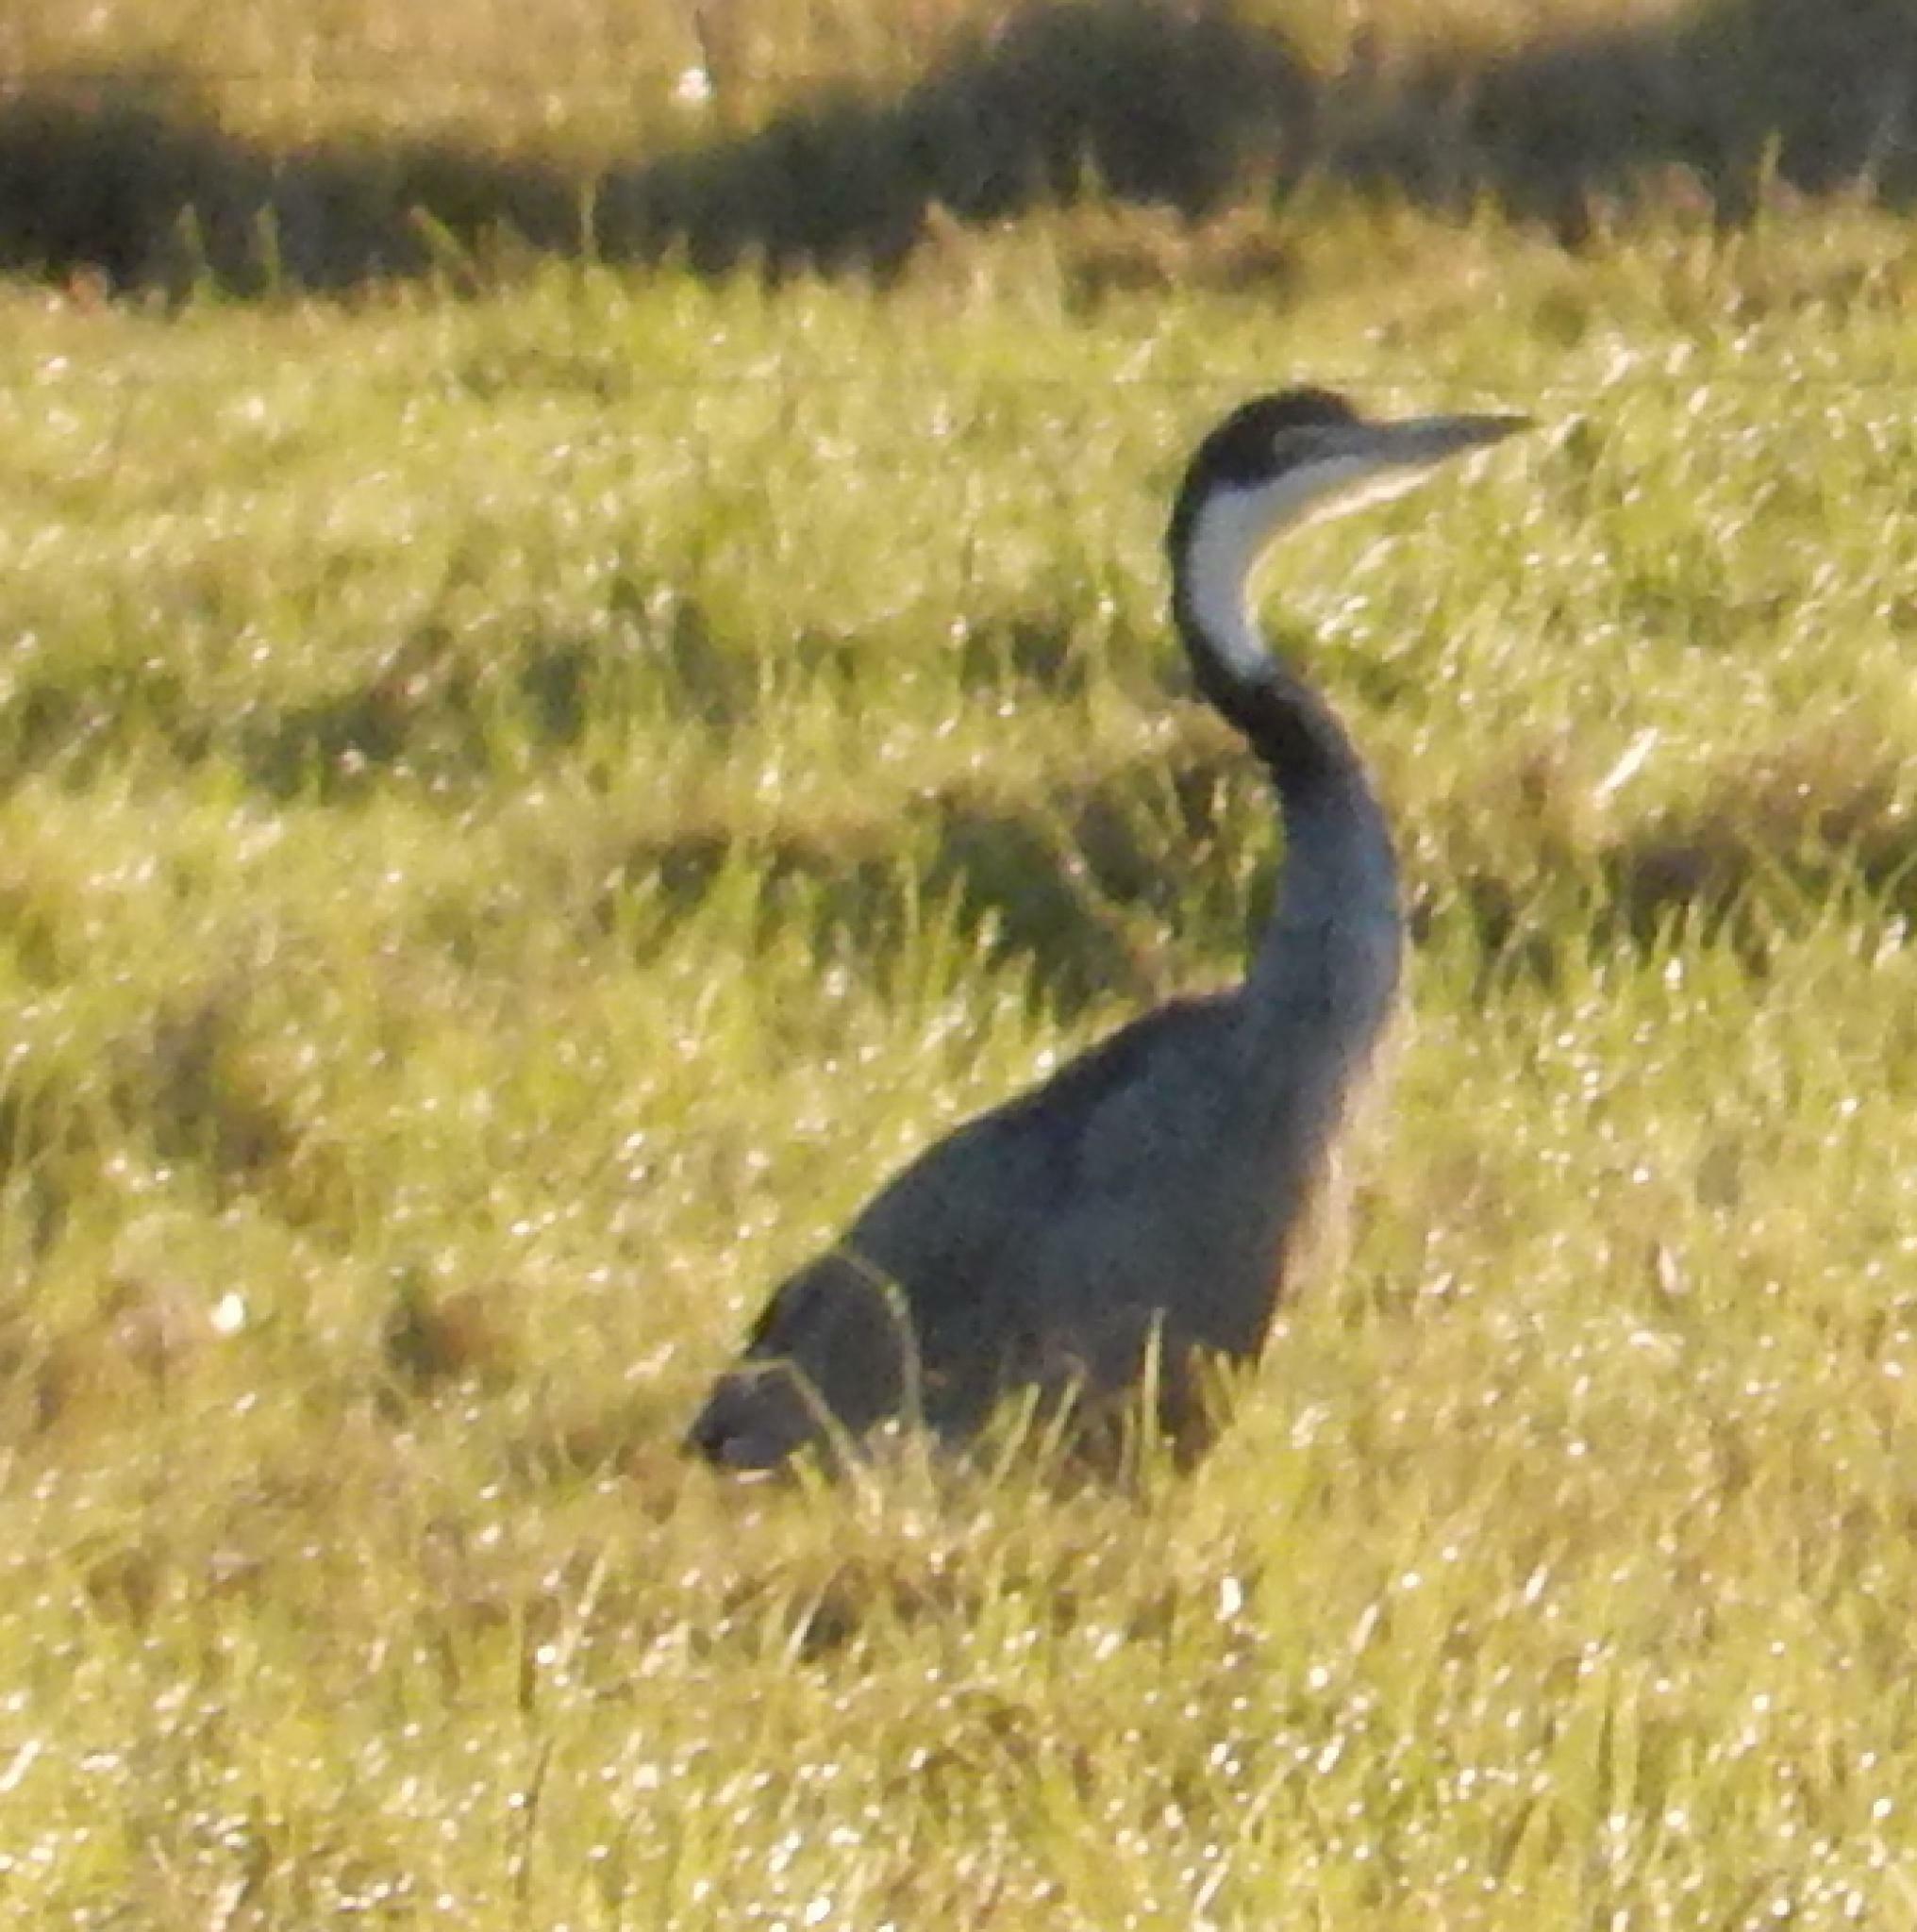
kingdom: Animalia
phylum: Chordata
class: Aves
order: Pelecaniformes
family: Ardeidae
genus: Ardea
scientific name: Ardea melanocephala
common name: Black-headed heron
